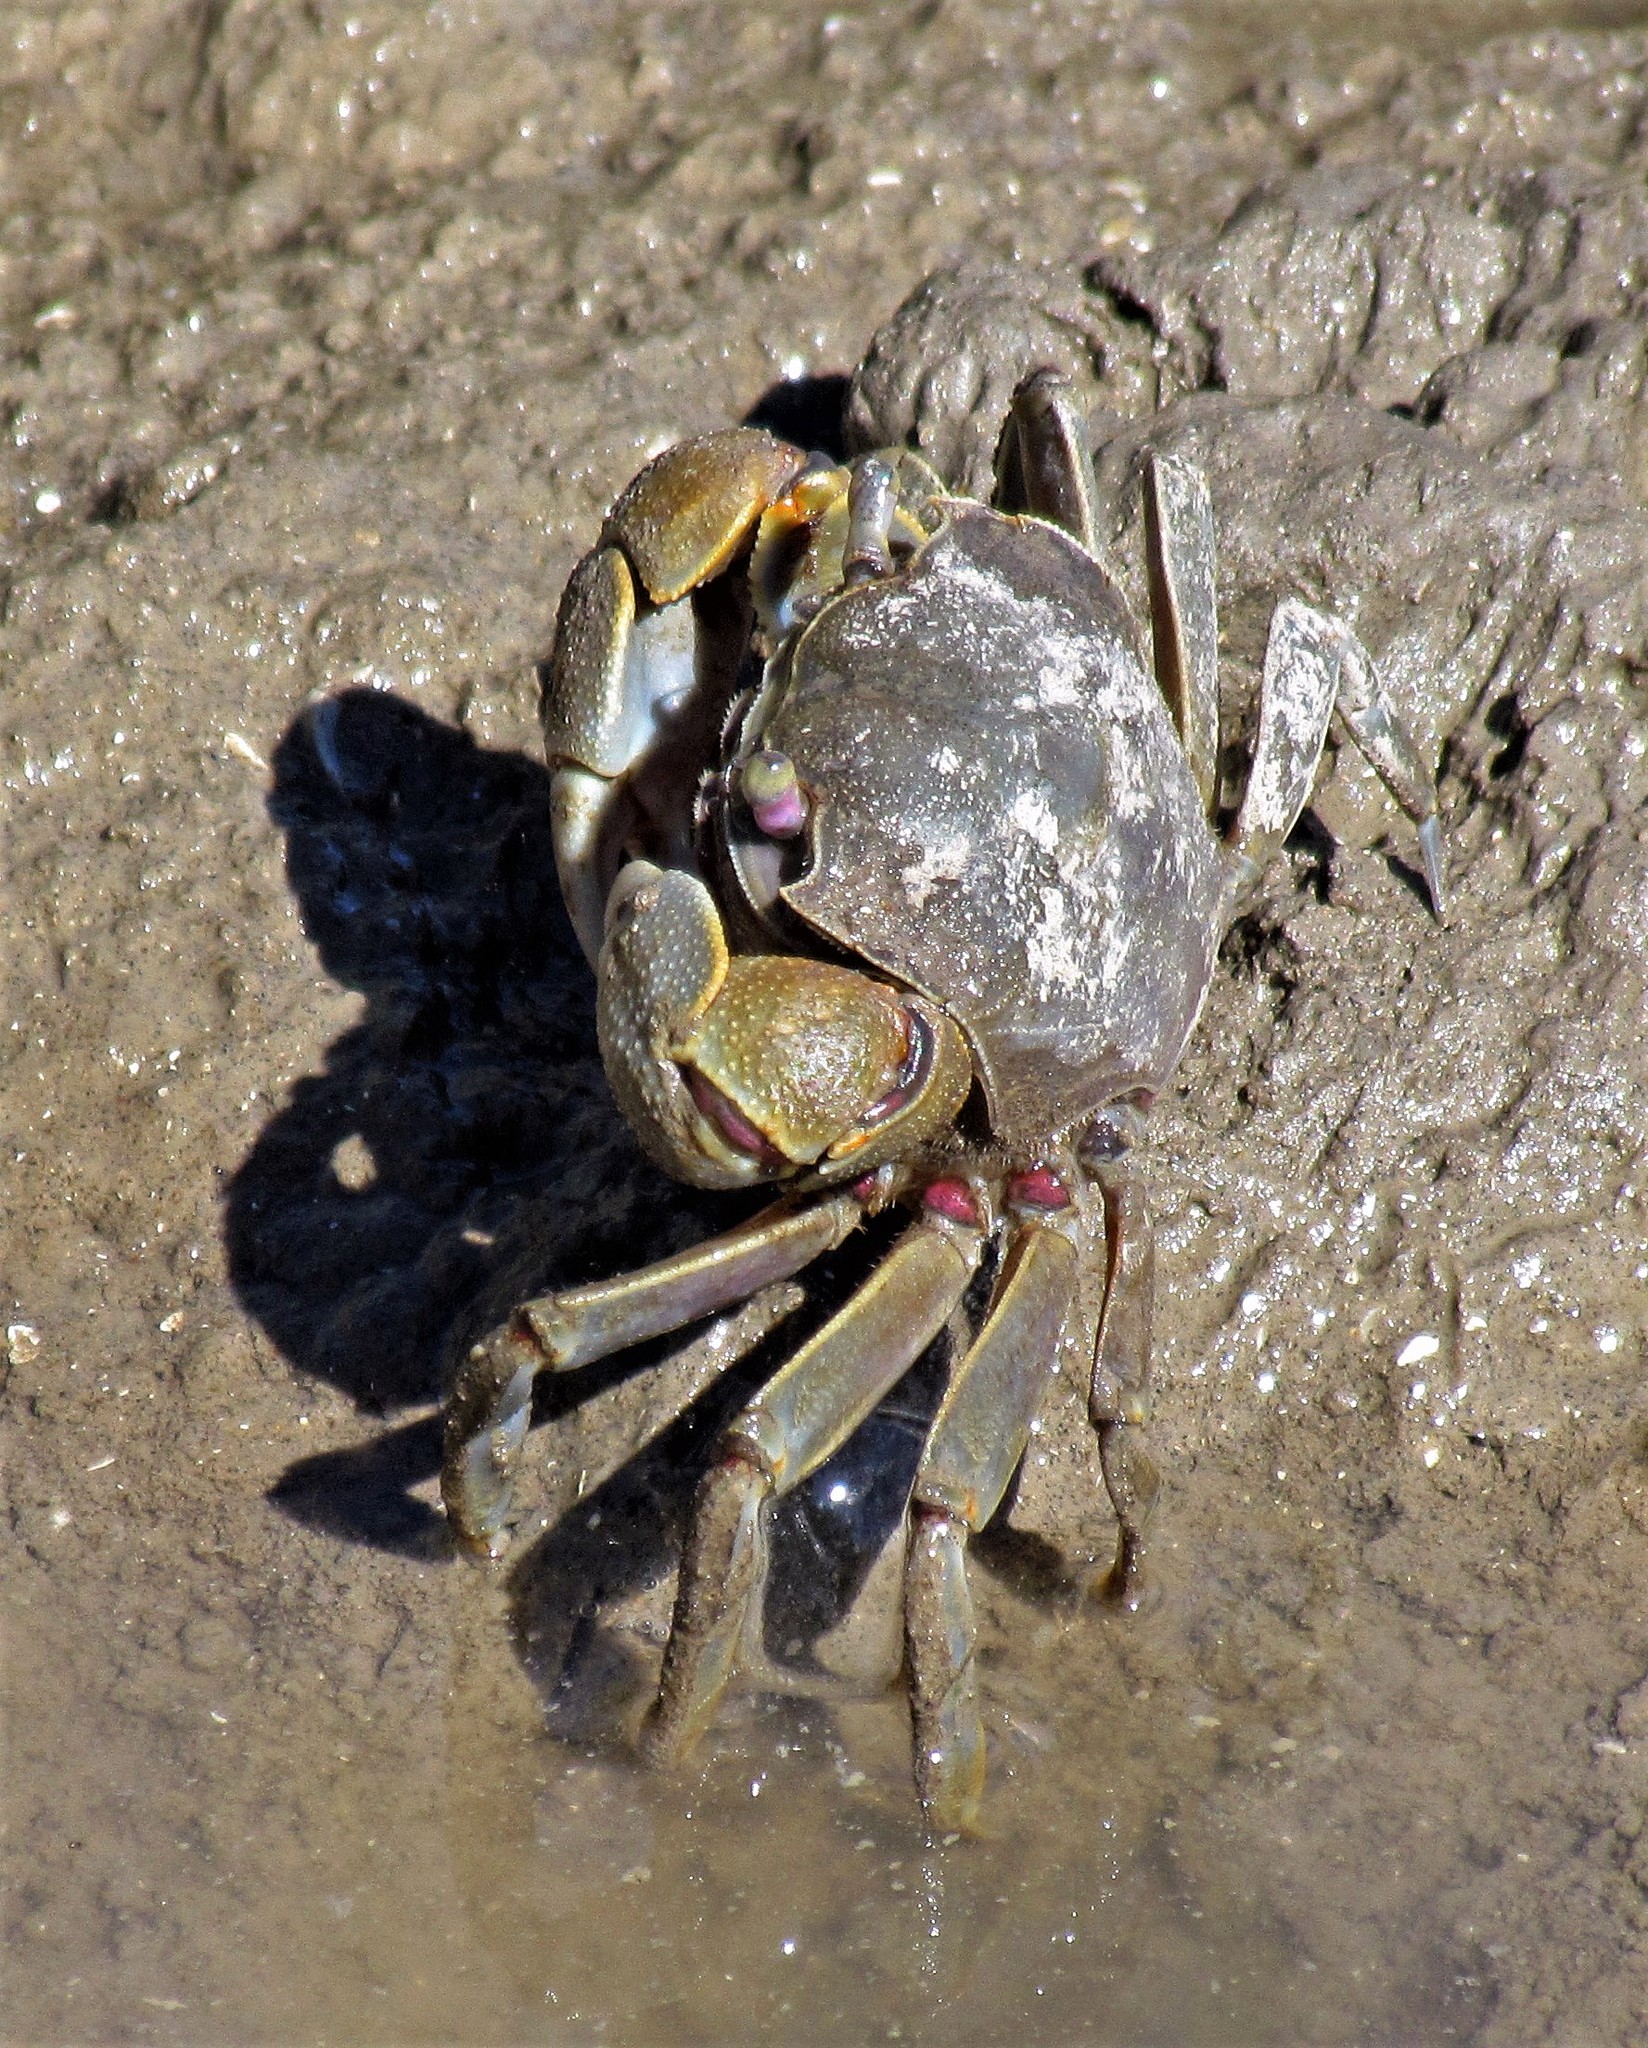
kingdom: Animalia
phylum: Arthropoda
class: Malacostraca
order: Decapoda
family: Varunidae
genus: Neohelice
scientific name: Neohelice granulata
